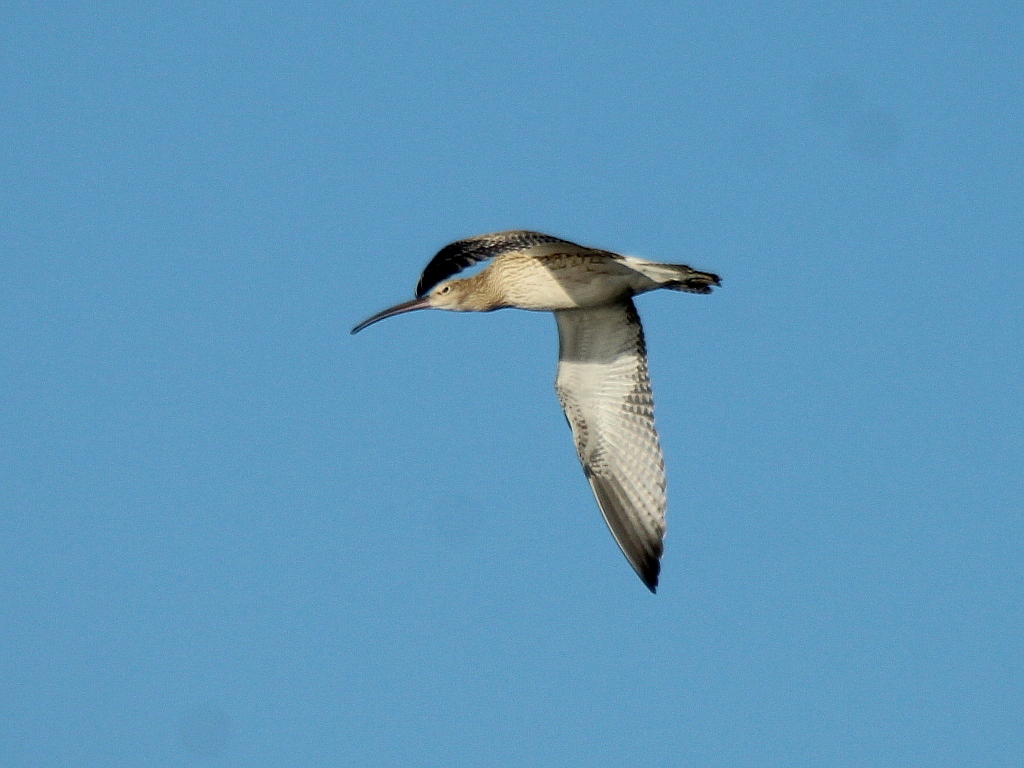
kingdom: Animalia
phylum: Chordata
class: Aves
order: Charadriiformes
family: Scolopacidae
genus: Numenius
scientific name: Numenius arquata
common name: Eurasian curlew
